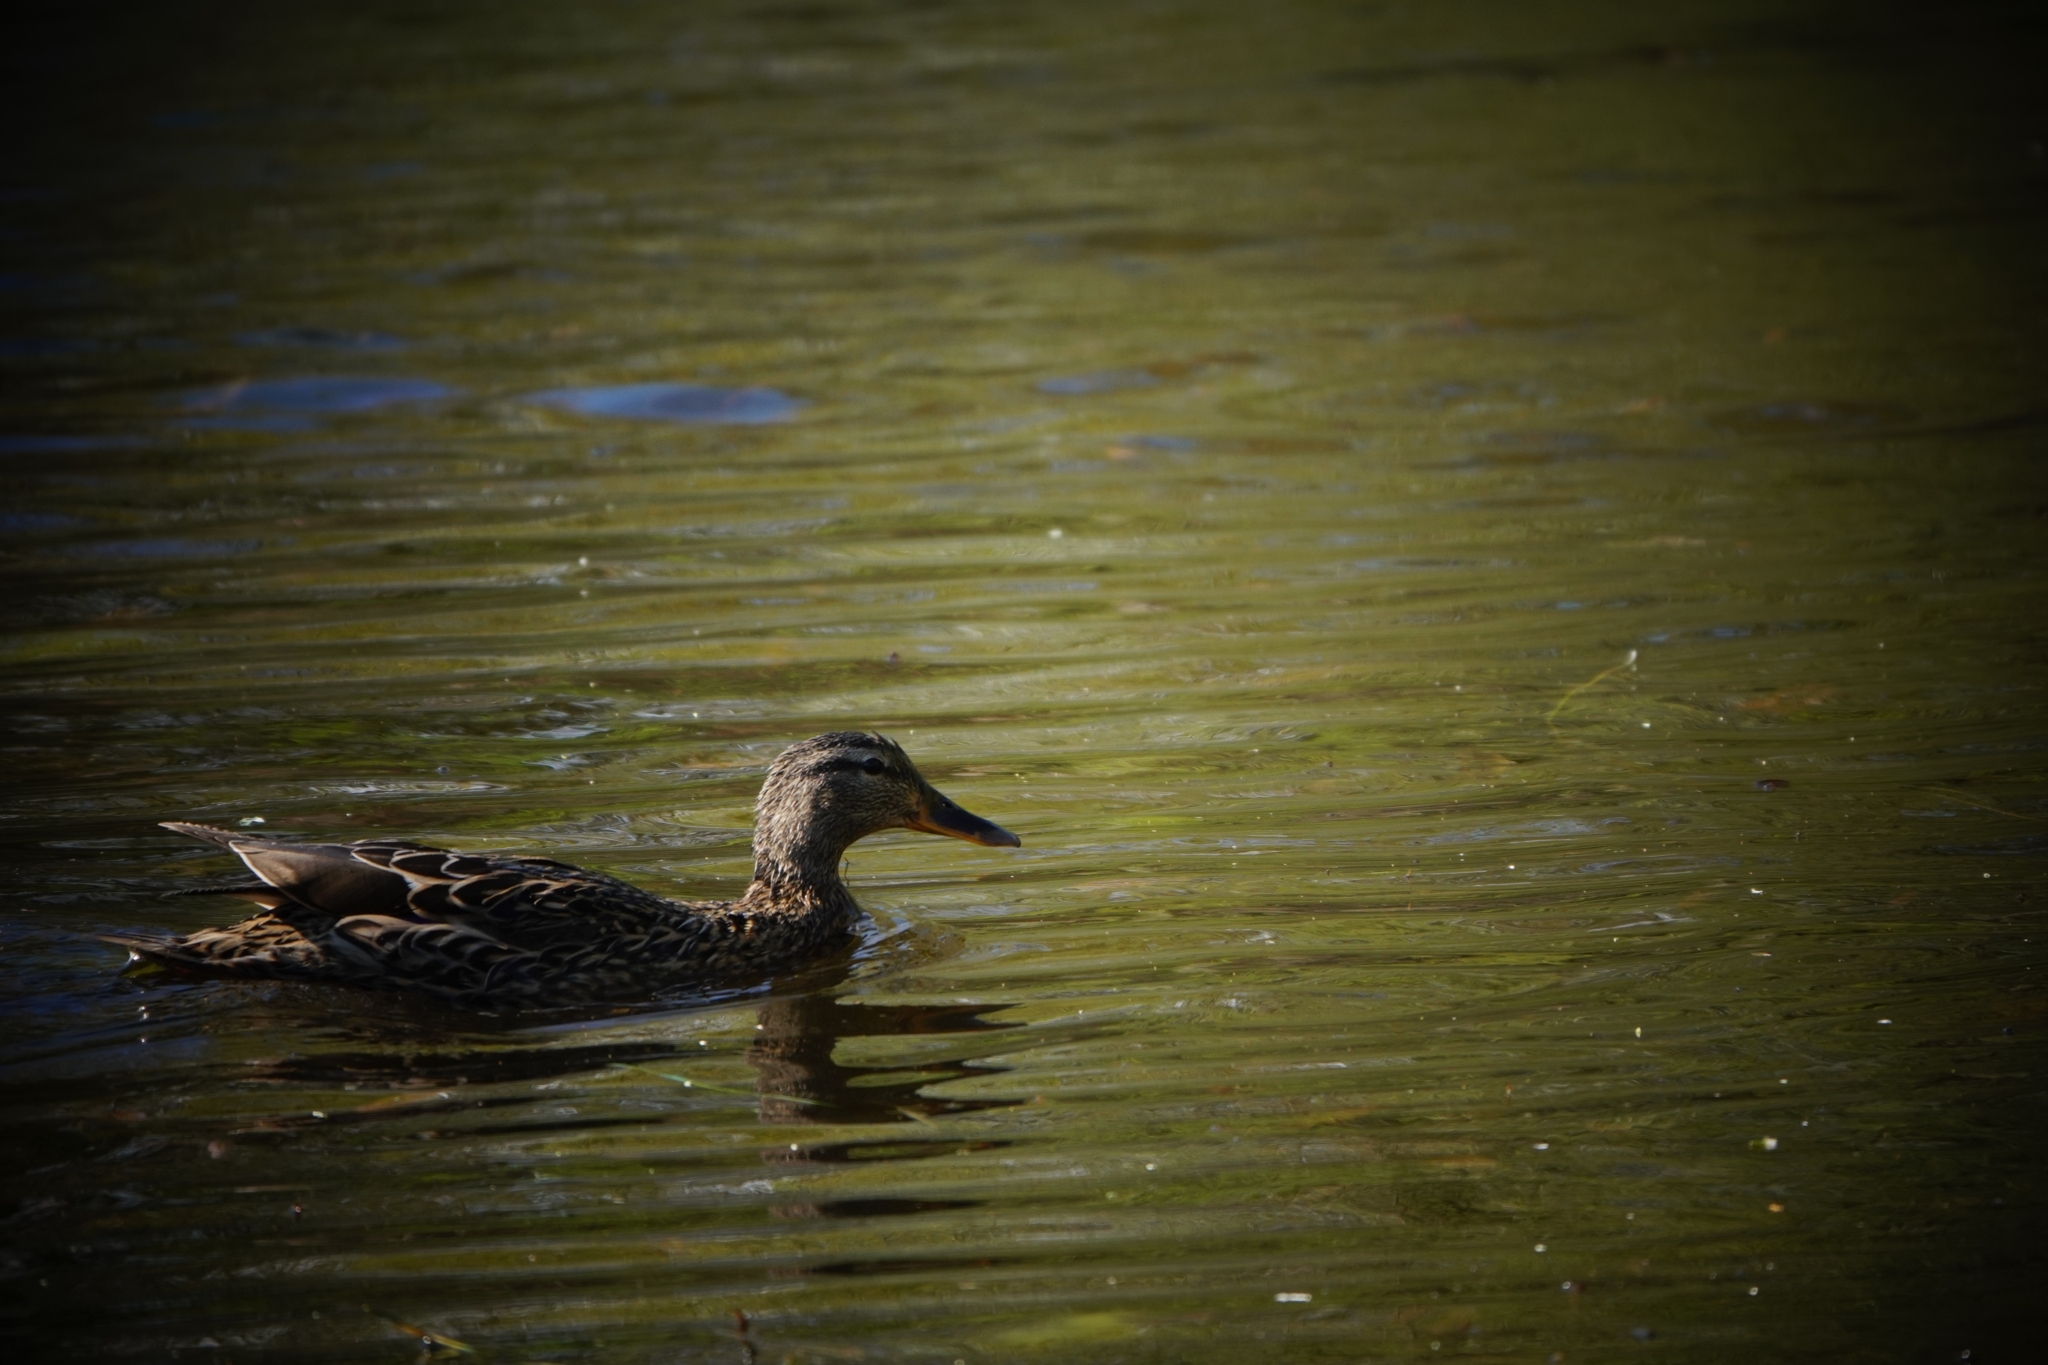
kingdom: Animalia
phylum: Chordata
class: Aves
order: Anseriformes
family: Anatidae
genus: Anas
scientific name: Anas platyrhynchos
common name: Mallard
